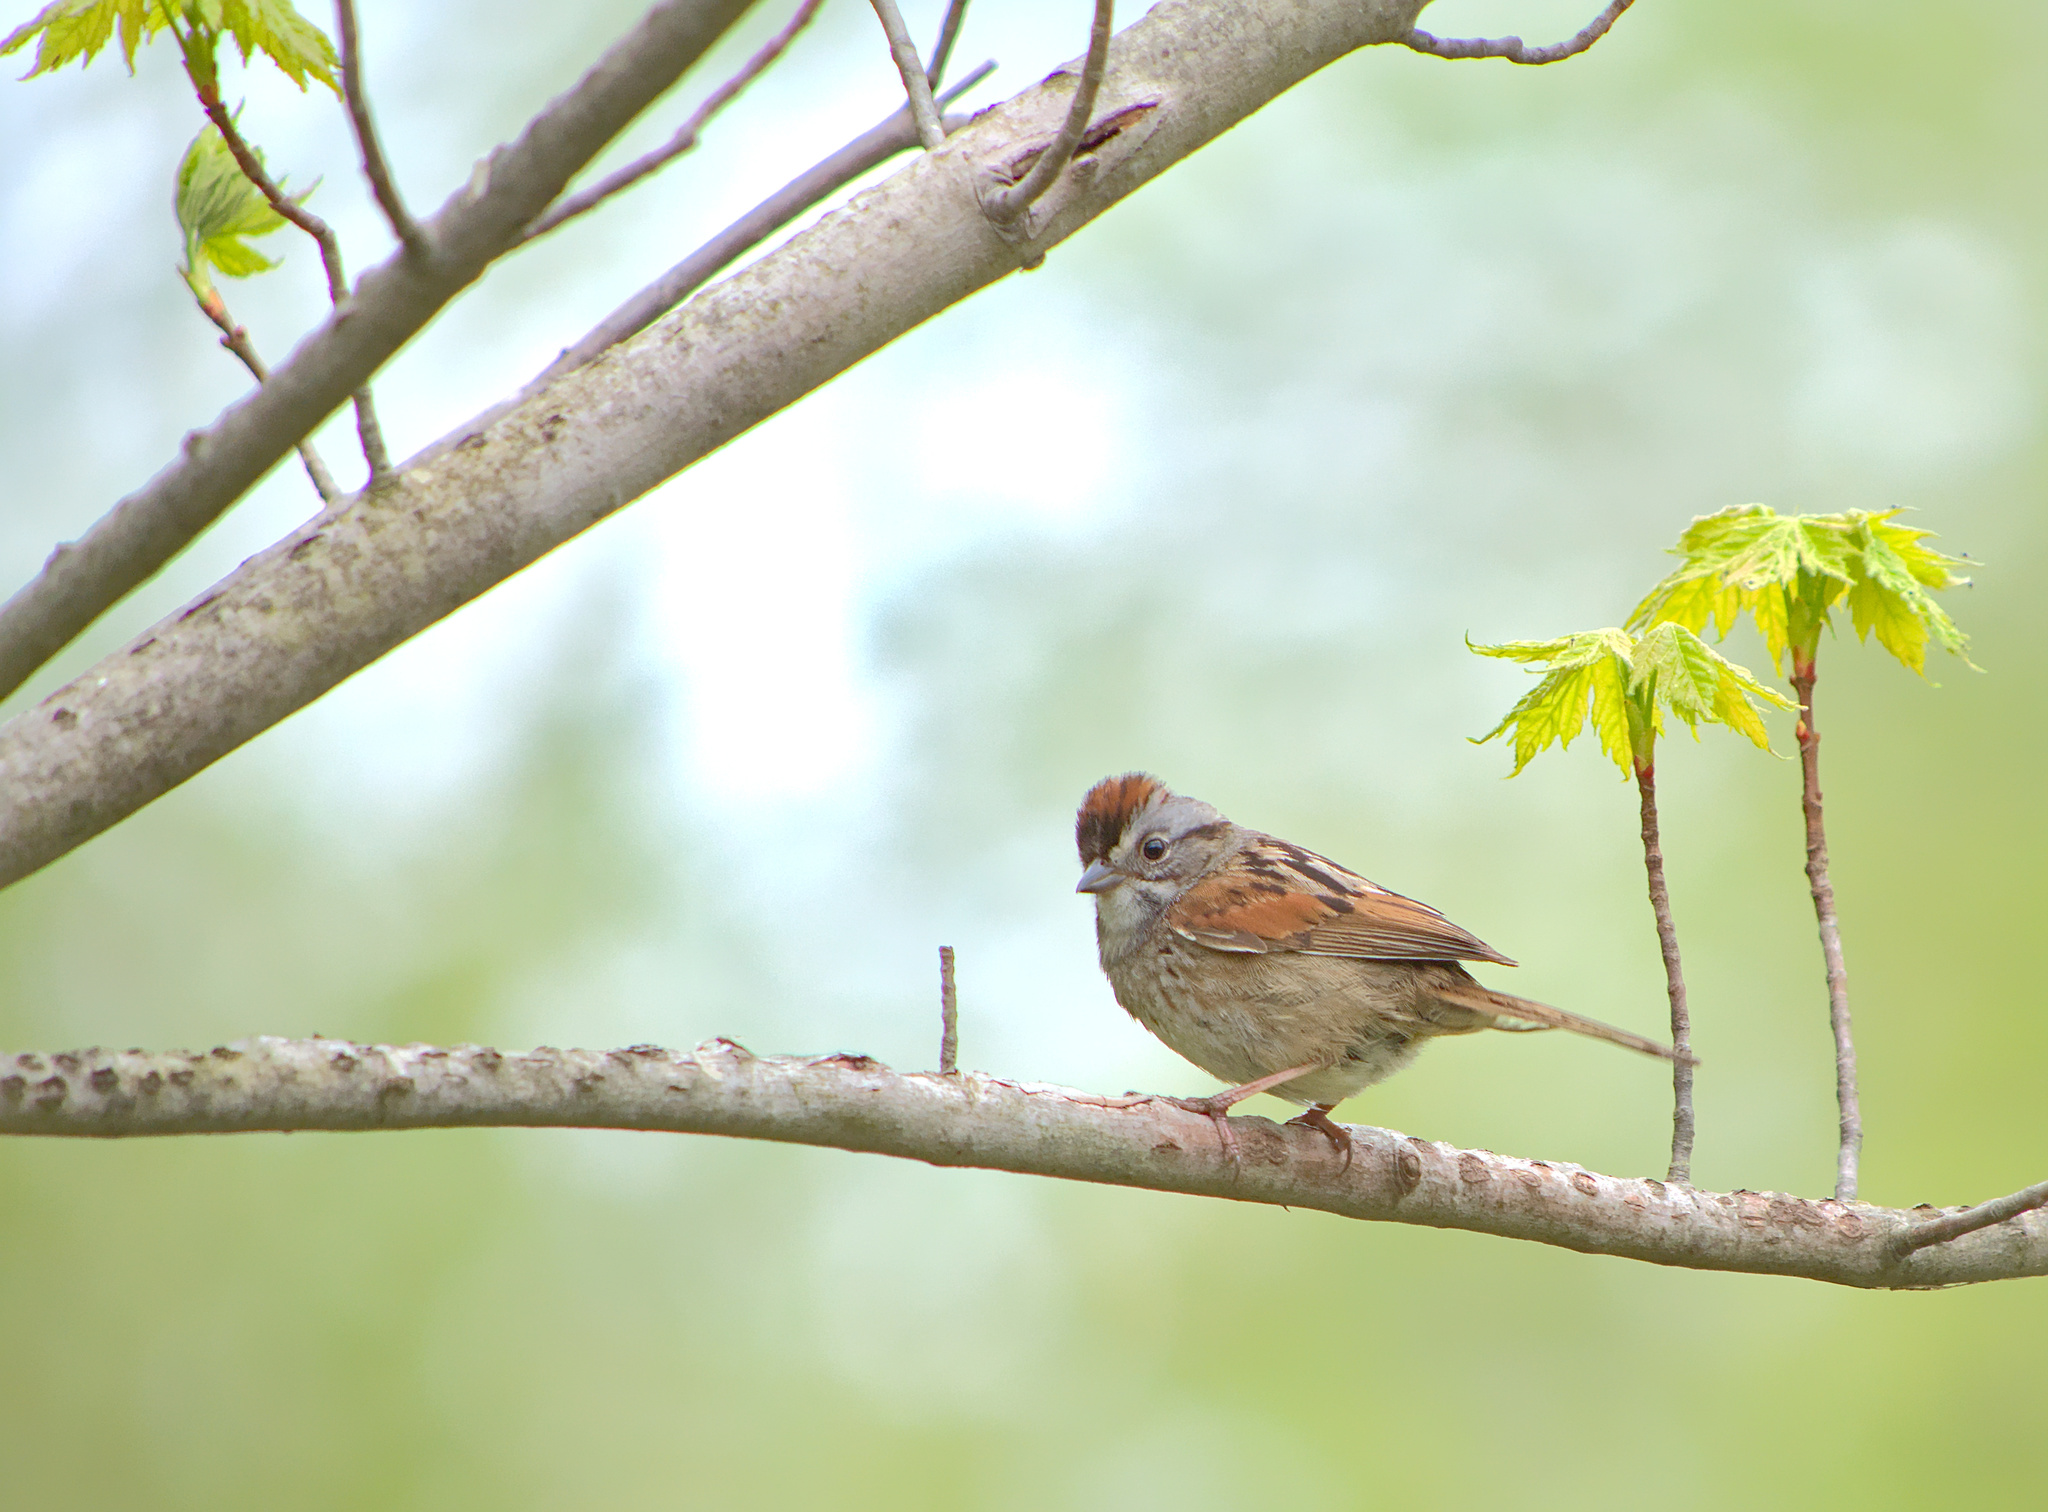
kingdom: Animalia
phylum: Chordata
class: Aves
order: Passeriformes
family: Passerellidae
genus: Melospiza
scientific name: Melospiza georgiana
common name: Swamp sparrow
